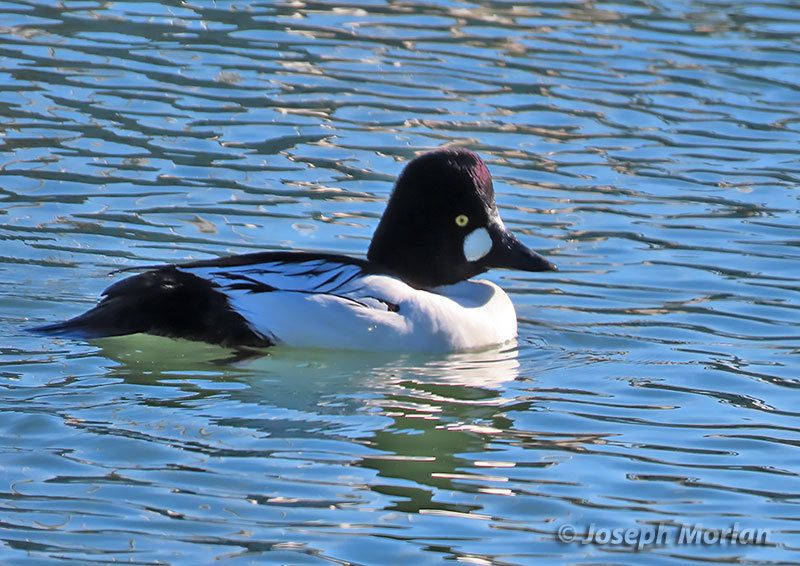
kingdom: Animalia
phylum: Chordata
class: Aves
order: Anseriformes
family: Anatidae
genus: Bucephala
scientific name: Bucephala clangula
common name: Common goldeneye
